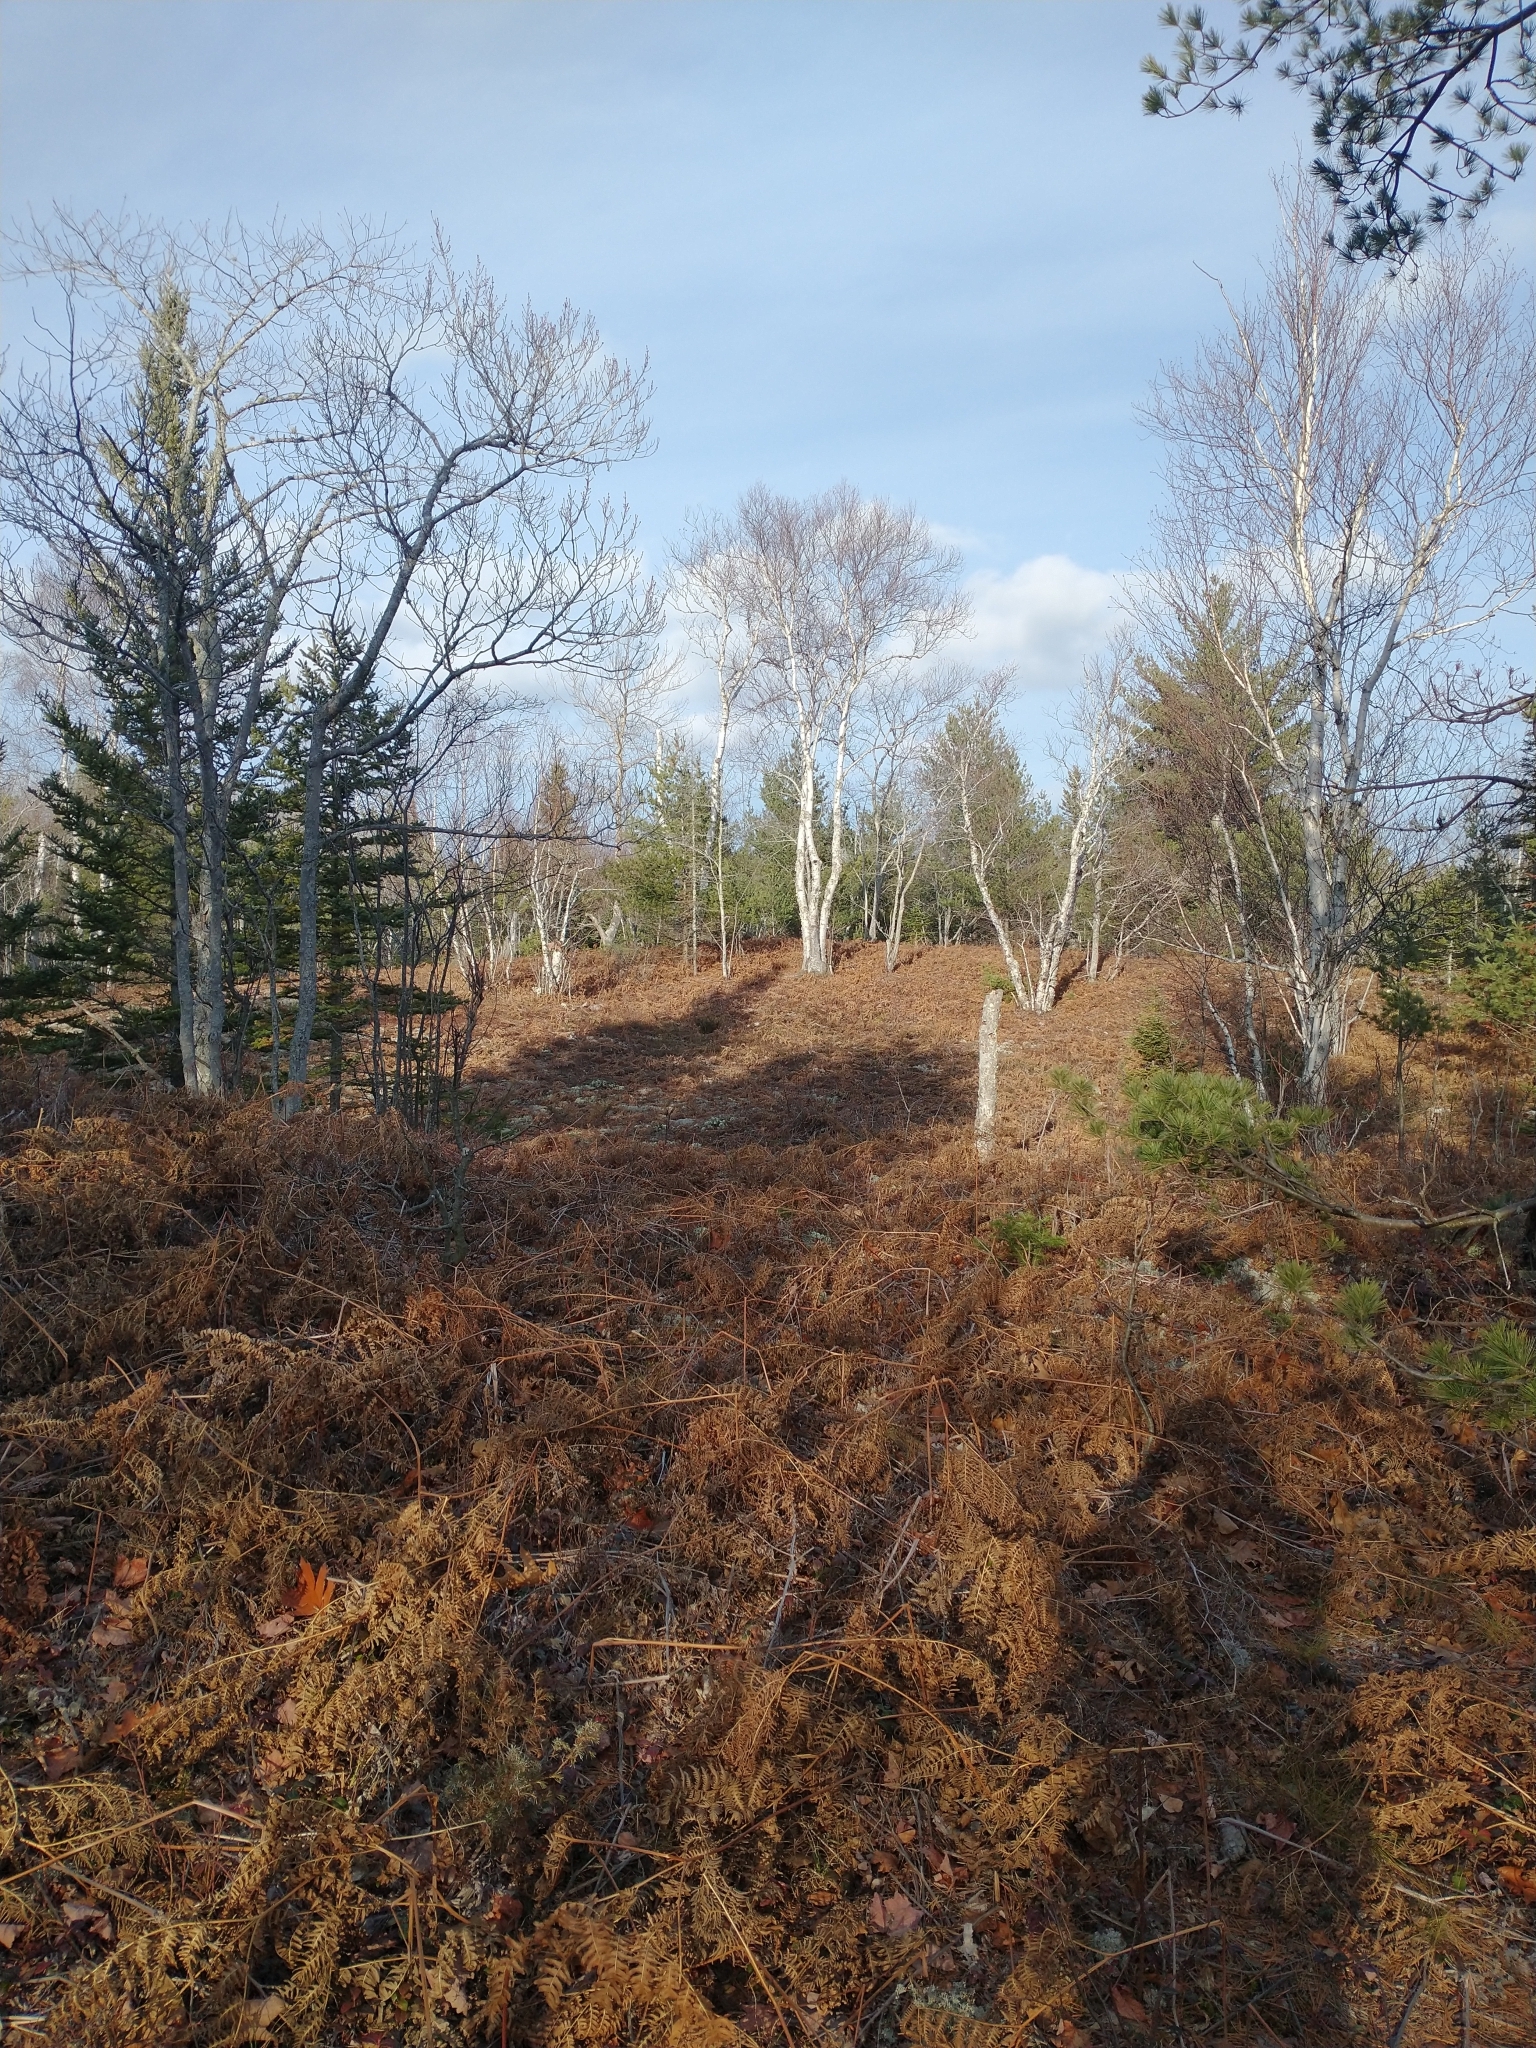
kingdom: Plantae
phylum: Tracheophyta
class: Magnoliopsida
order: Fagales
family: Betulaceae
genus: Betula
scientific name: Betula papyrifera
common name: Paper birch
